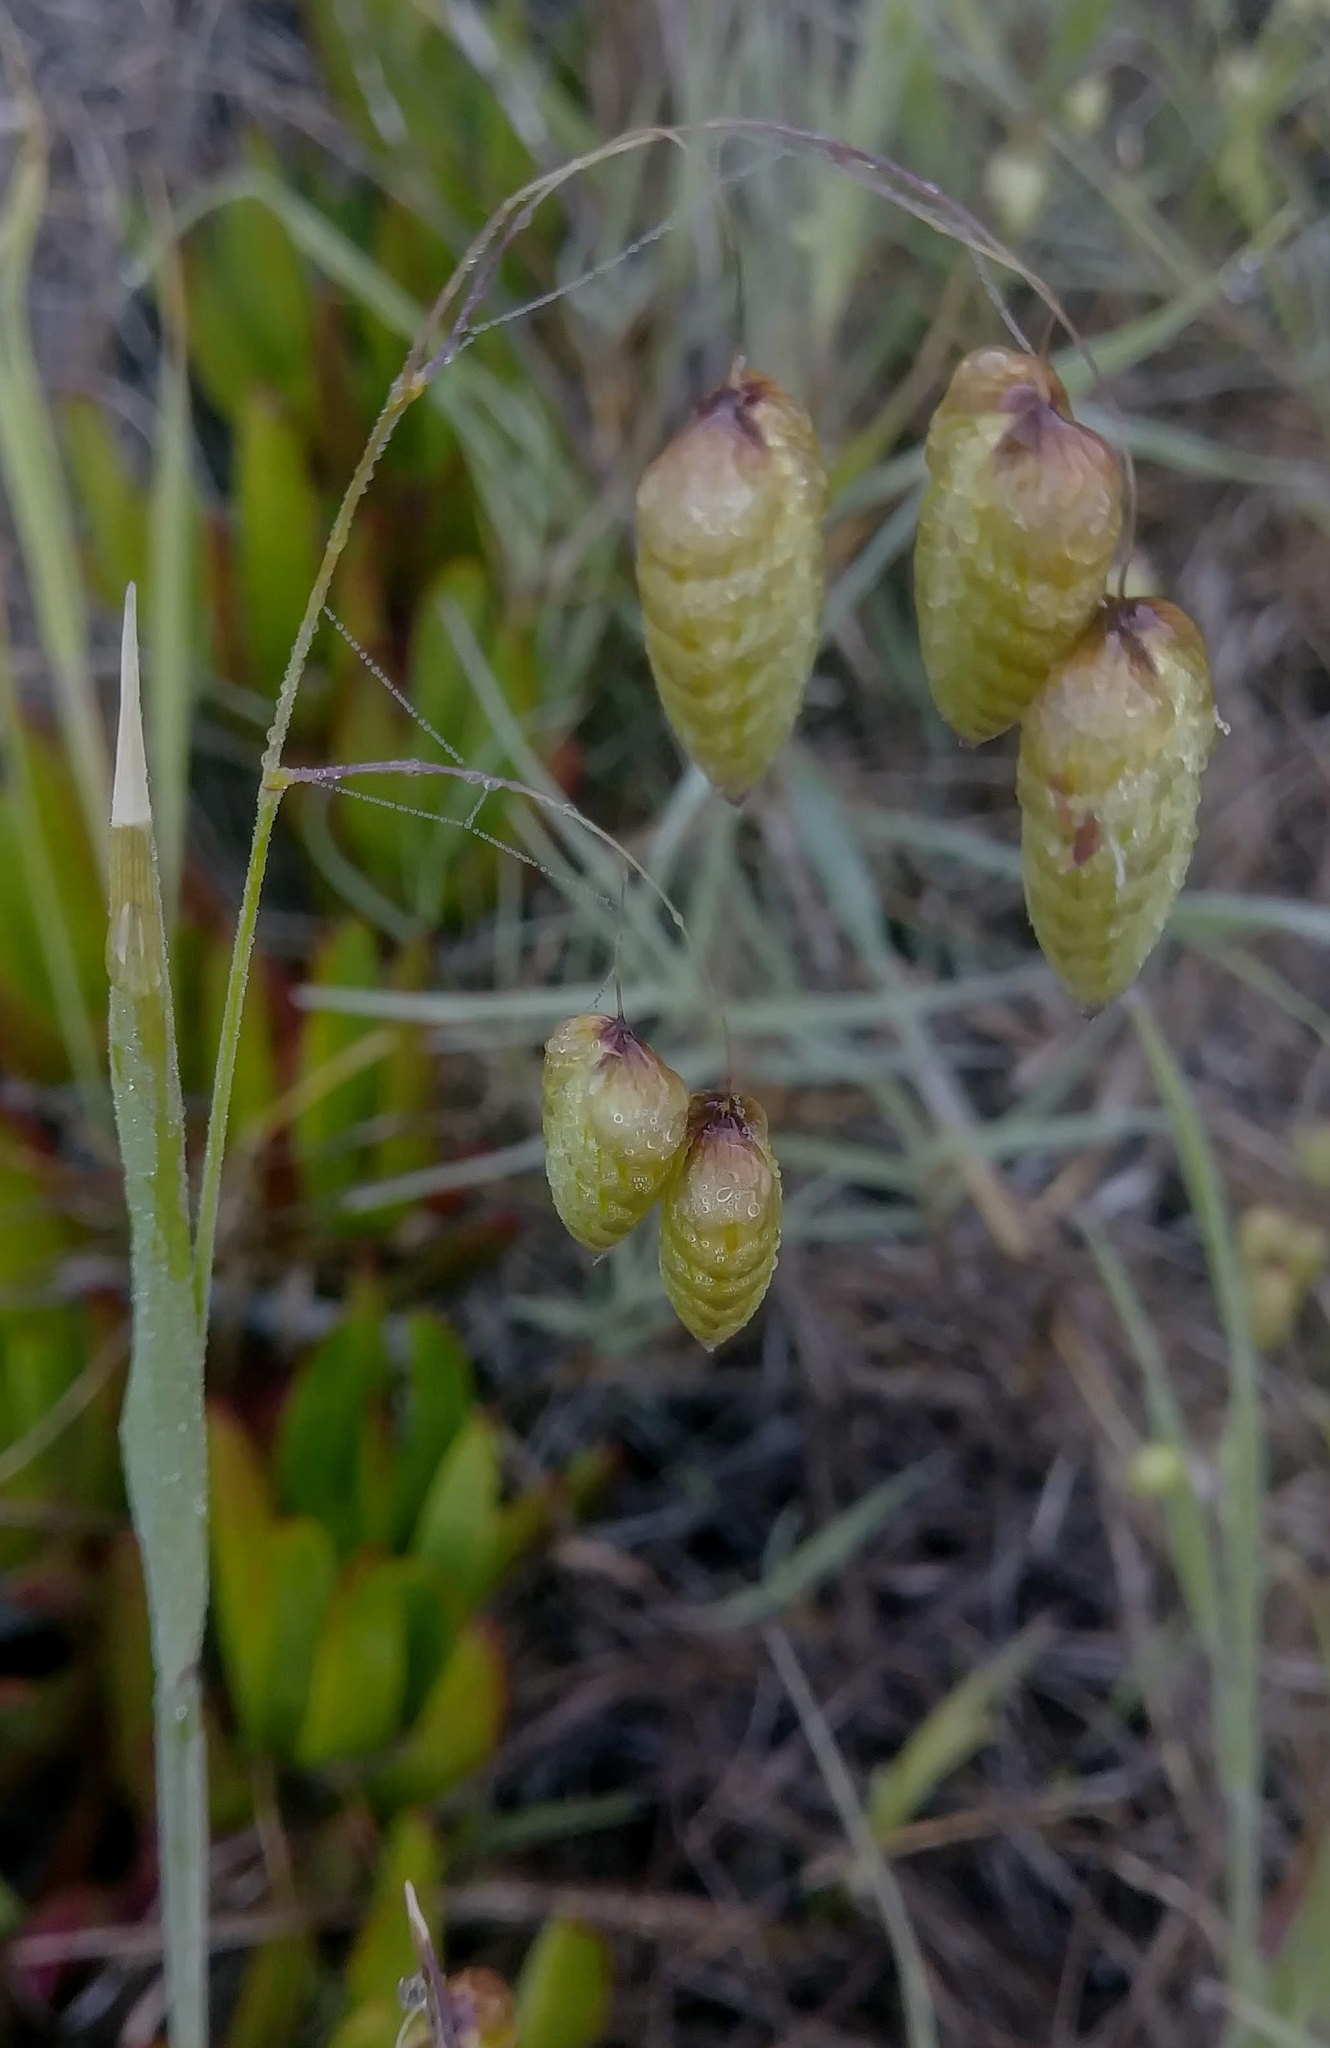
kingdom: Plantae
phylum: Tracheophyta
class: Liliopsida
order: Poales
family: Poaceae
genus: Briza
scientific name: Briza maxima
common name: Big quakinggrass
